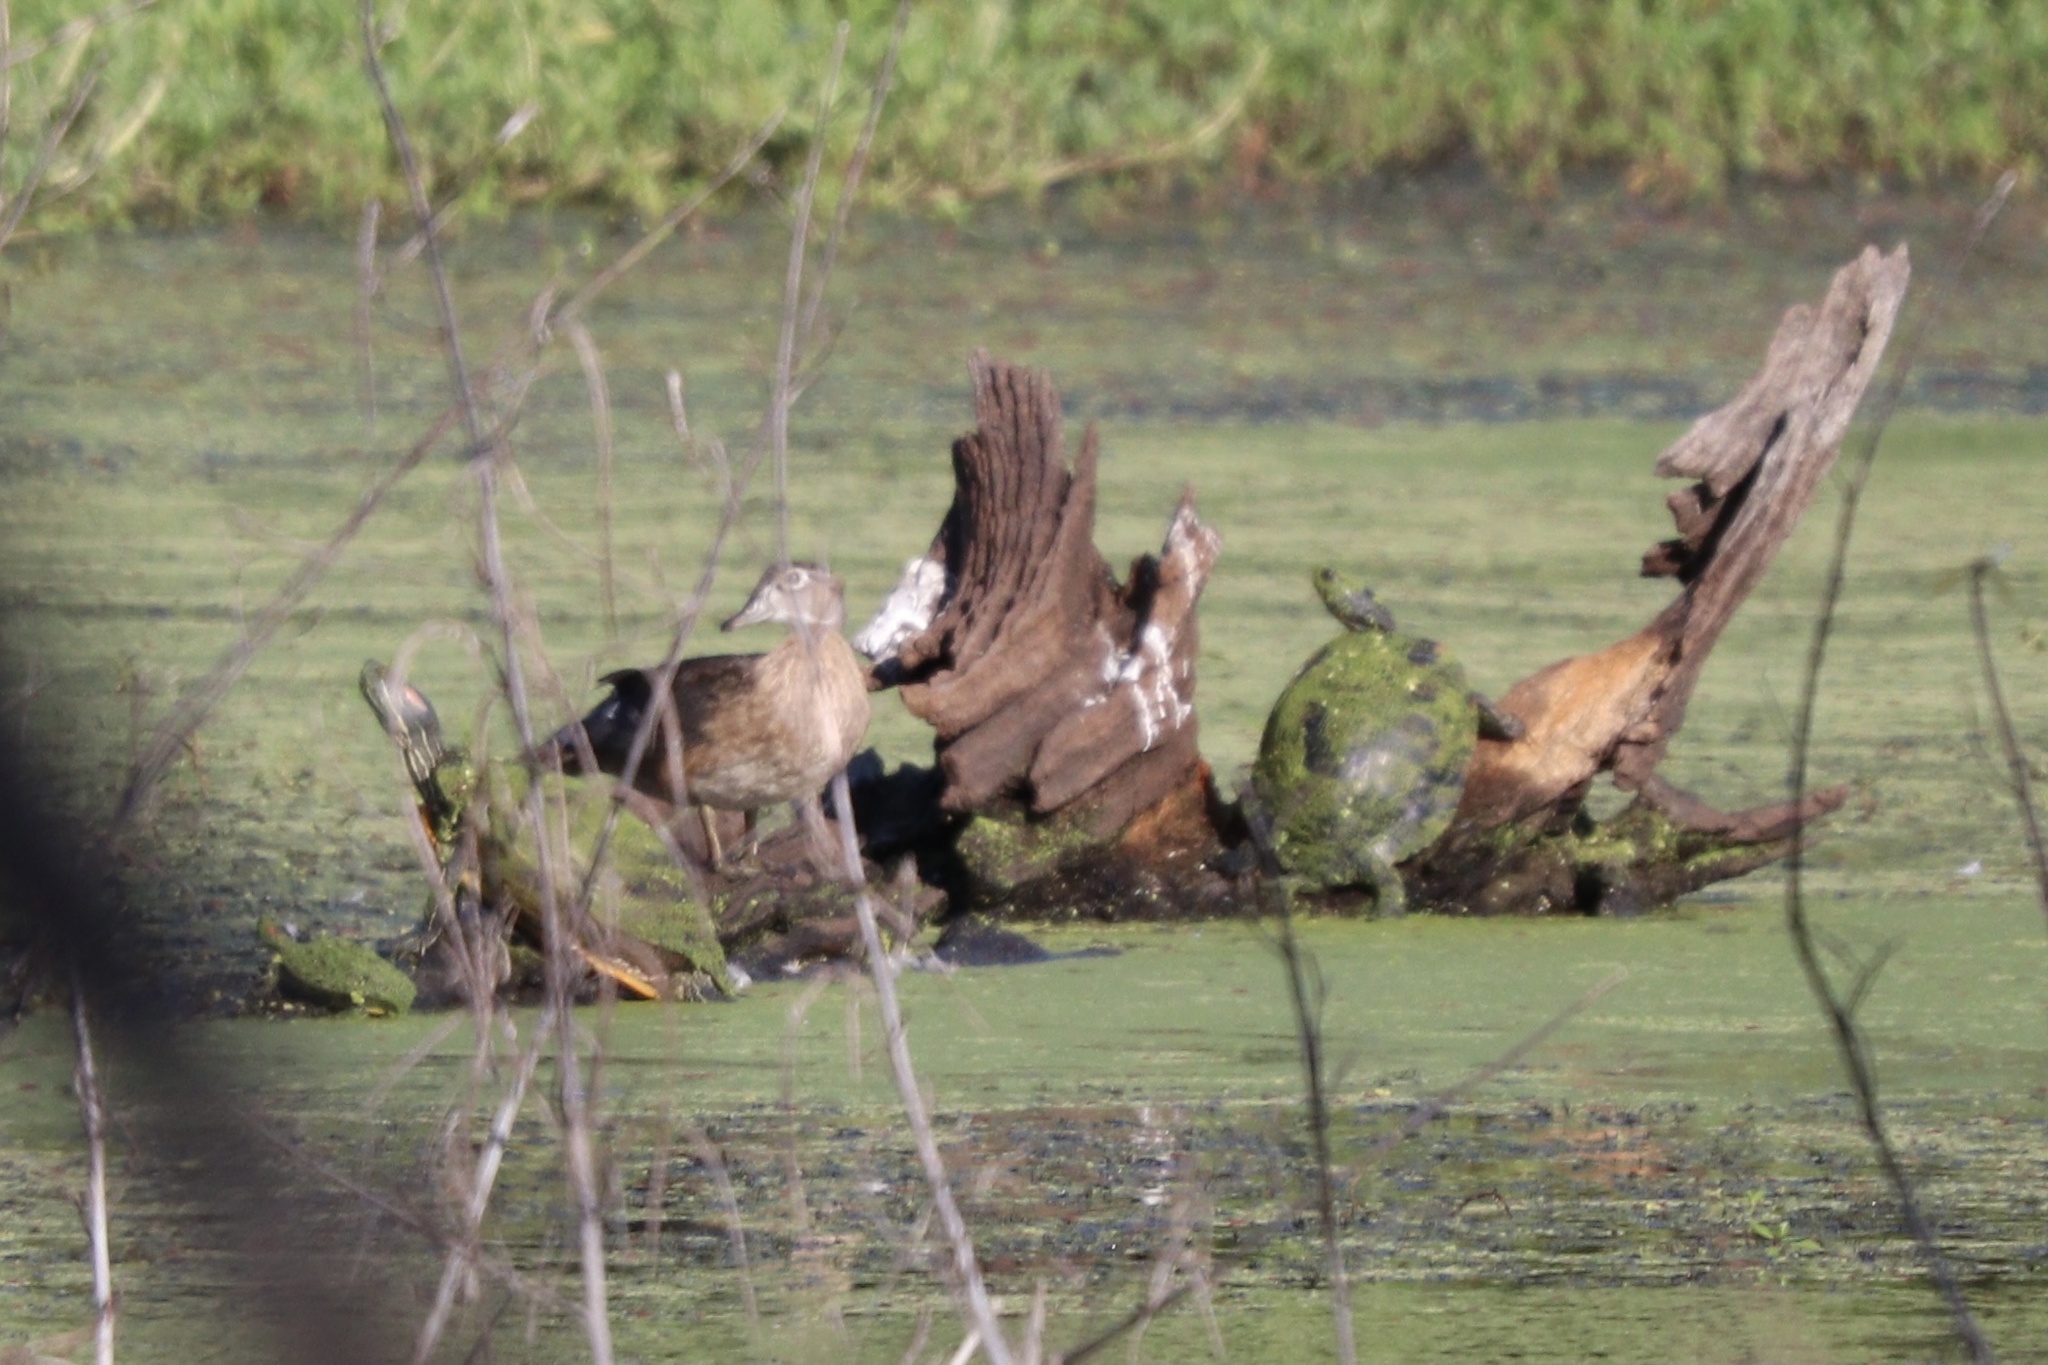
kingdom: Animalia
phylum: Chordata
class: Aves
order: Anseriformes
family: Anatidae
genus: Aix
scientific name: Aix sponsa
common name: Wood duck
